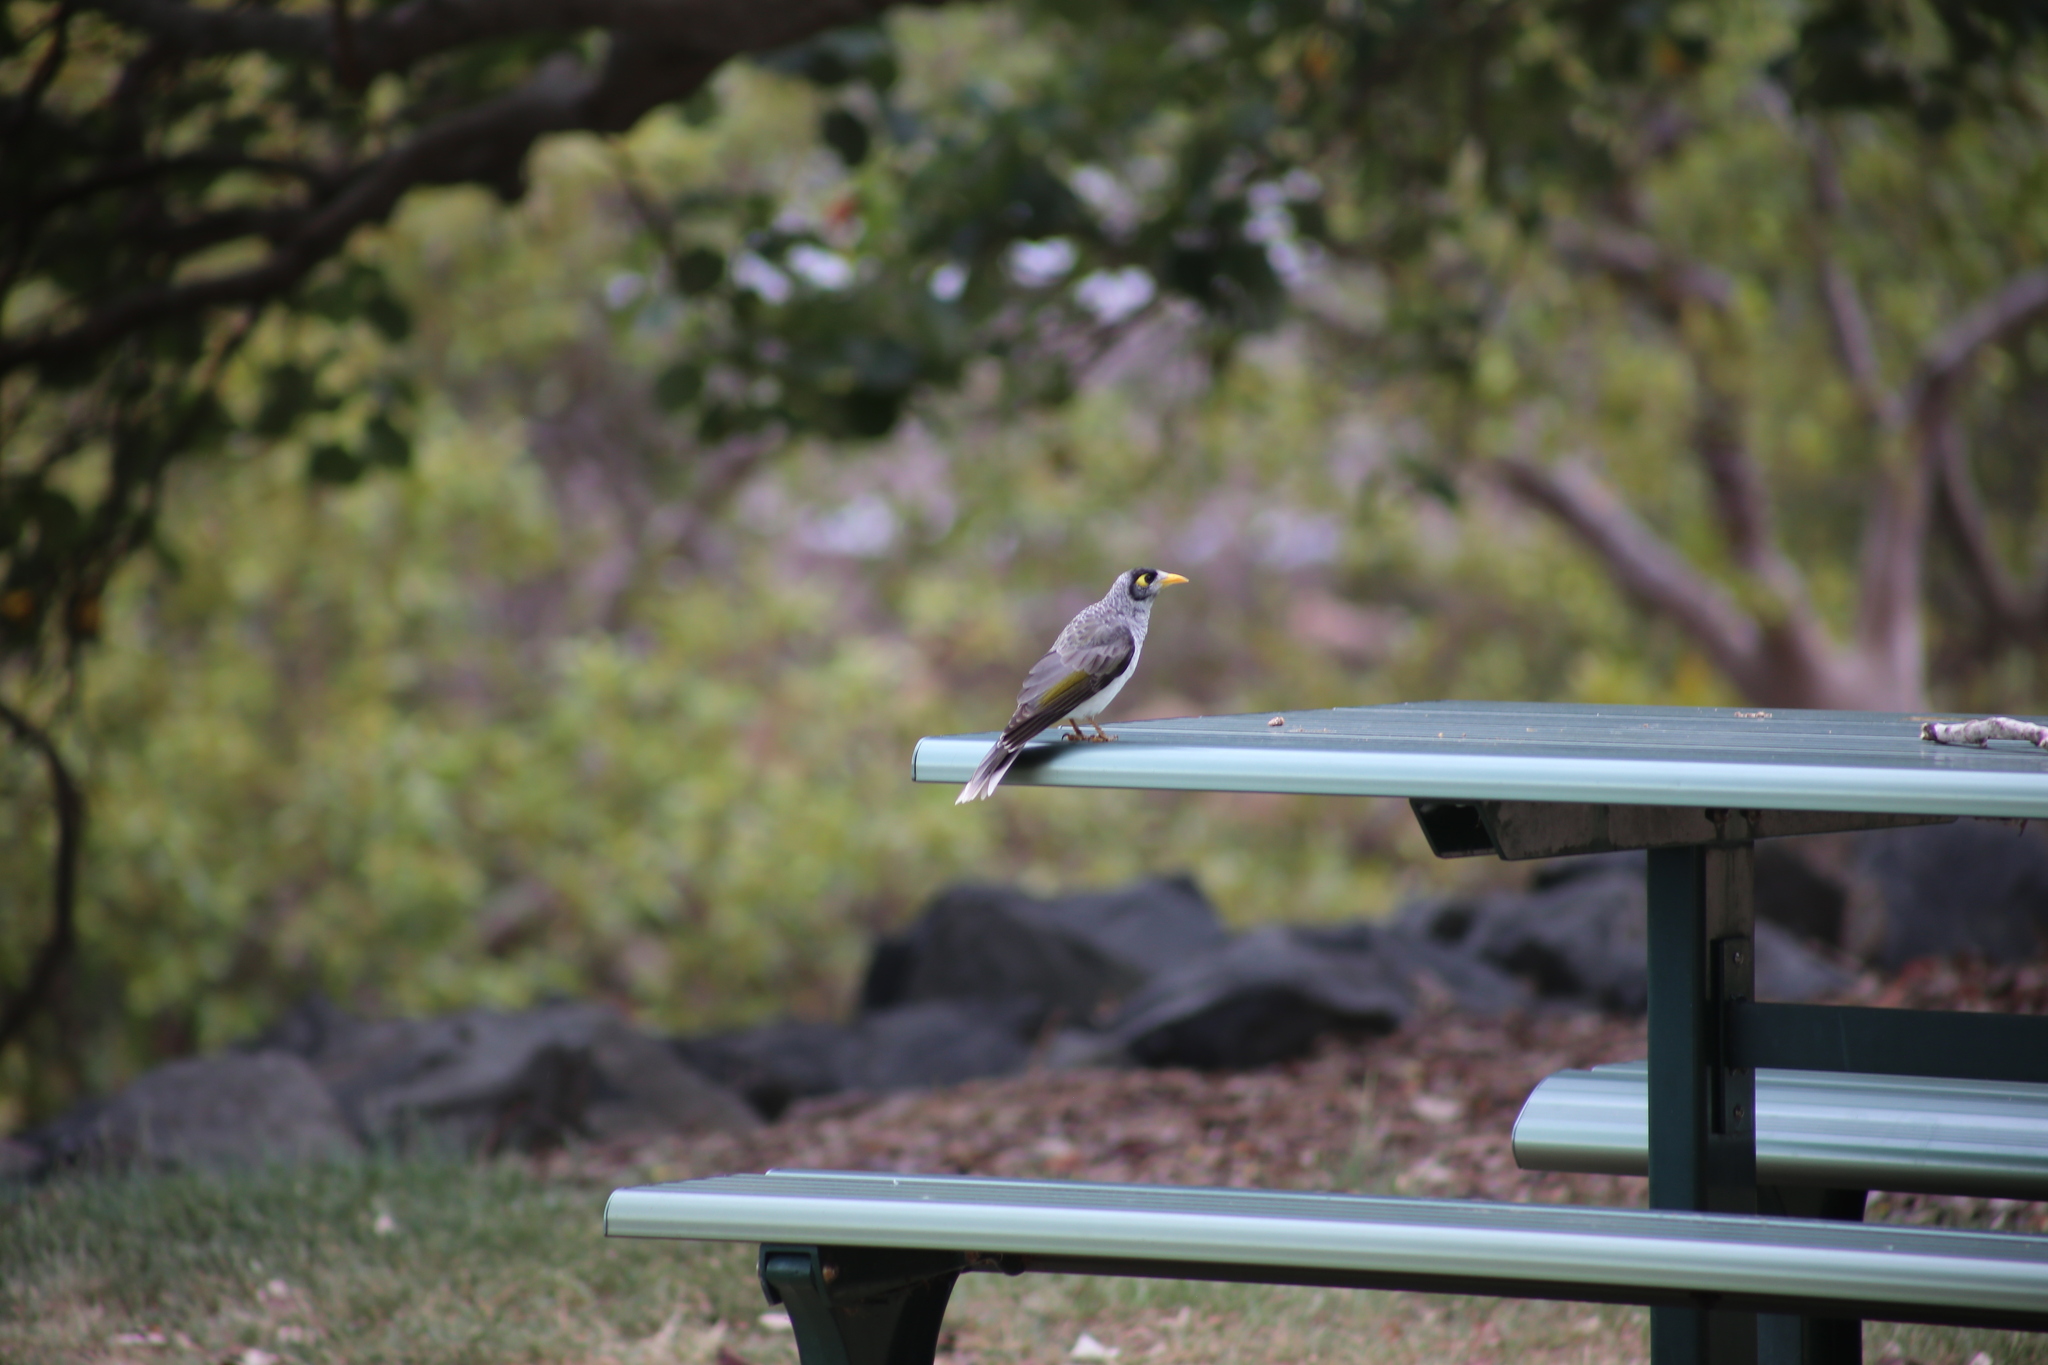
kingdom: Animalia
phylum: Chordata
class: Aves
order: Passeriformes
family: Meliphagidae
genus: Manorina
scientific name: Manorina melanocephala
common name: Noisy miner
